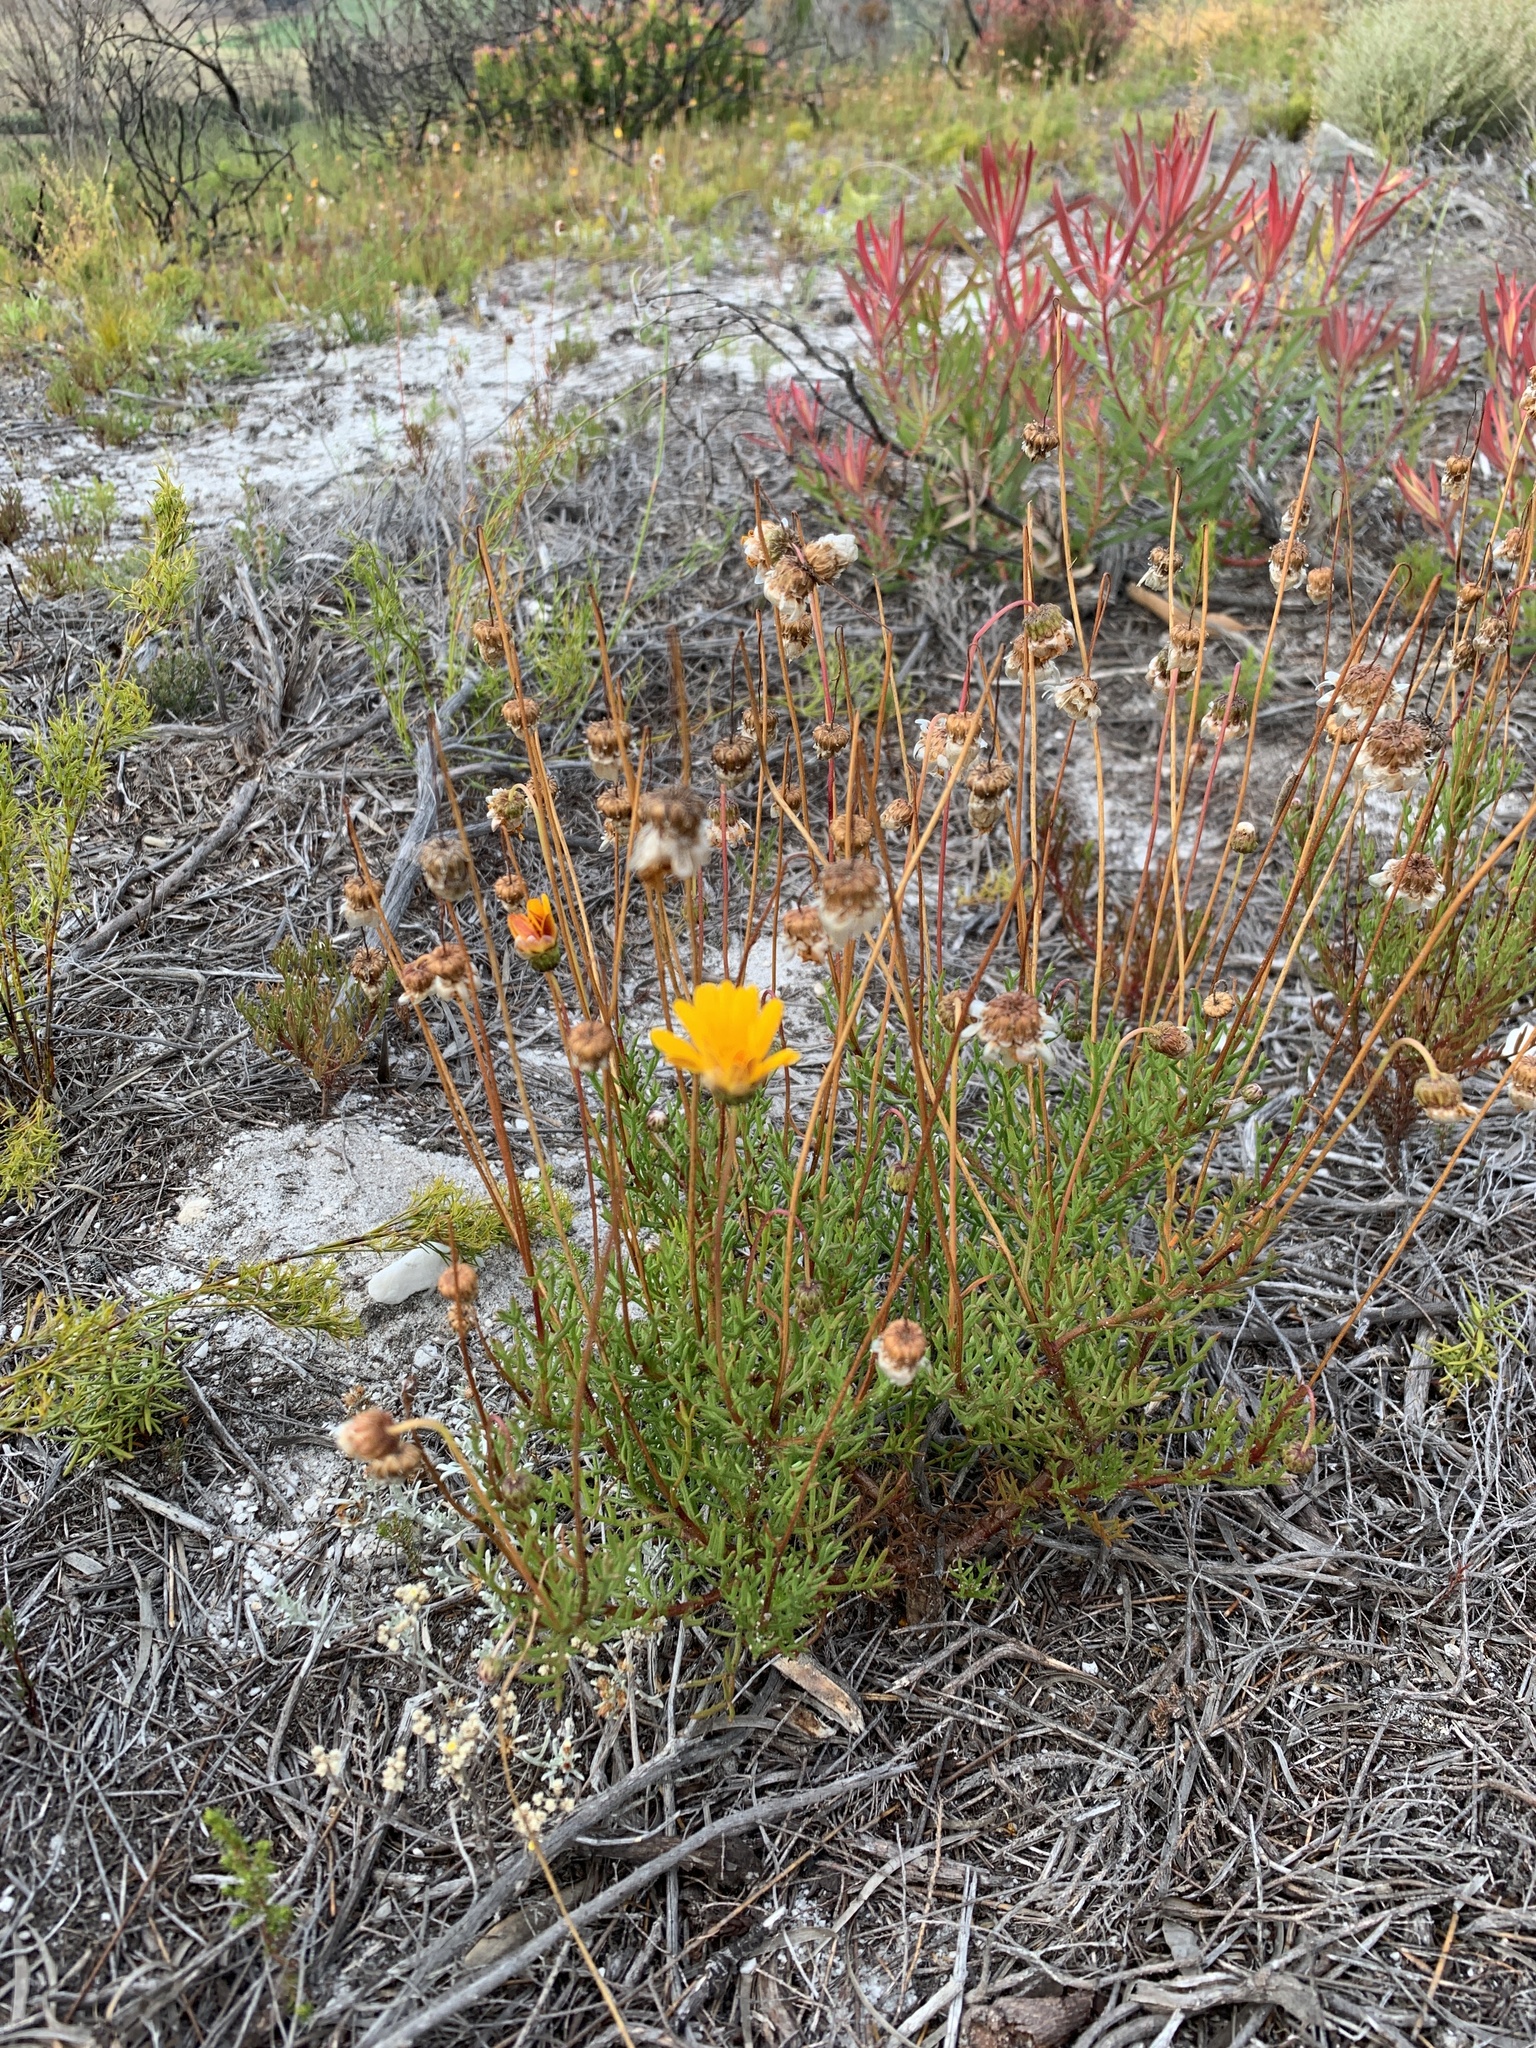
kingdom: Plantae
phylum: Tracheophyta
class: Magnoliopsida
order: Asterales
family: Asteraceae
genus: Ursinia
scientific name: Ursinia paleacea
